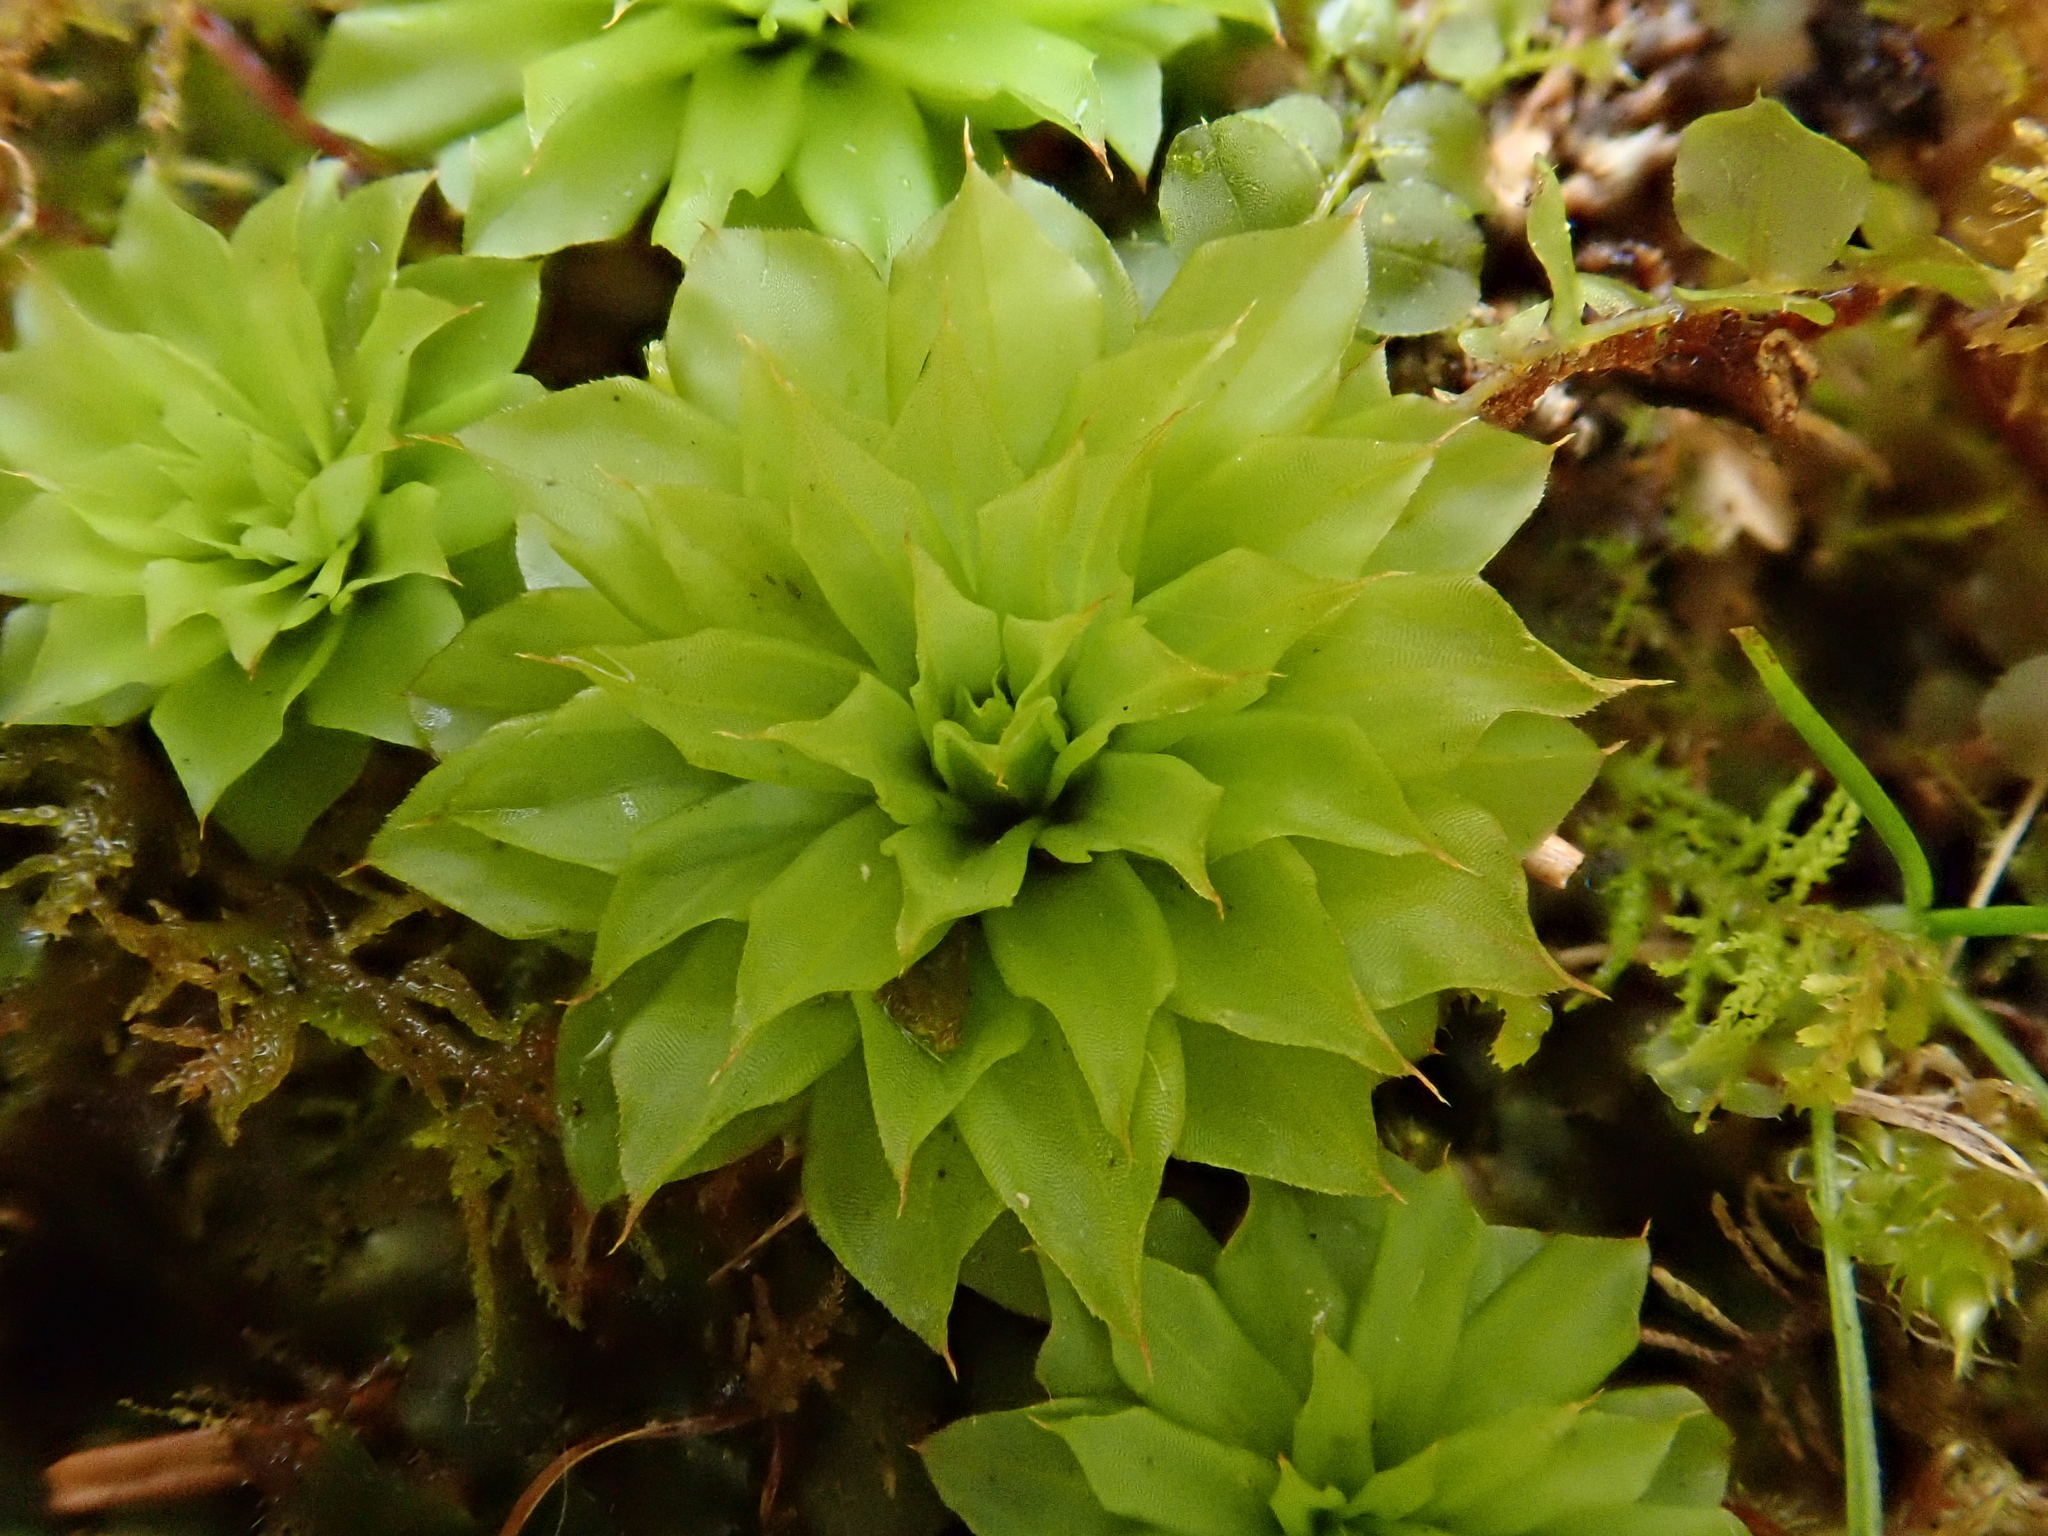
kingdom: Plantae
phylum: Bryophyta
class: Bryopsida
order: Bryales
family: Bryaceae
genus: Rhodobryum
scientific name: Rhodobryum ontariense
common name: Ontario rhodobryum moss
